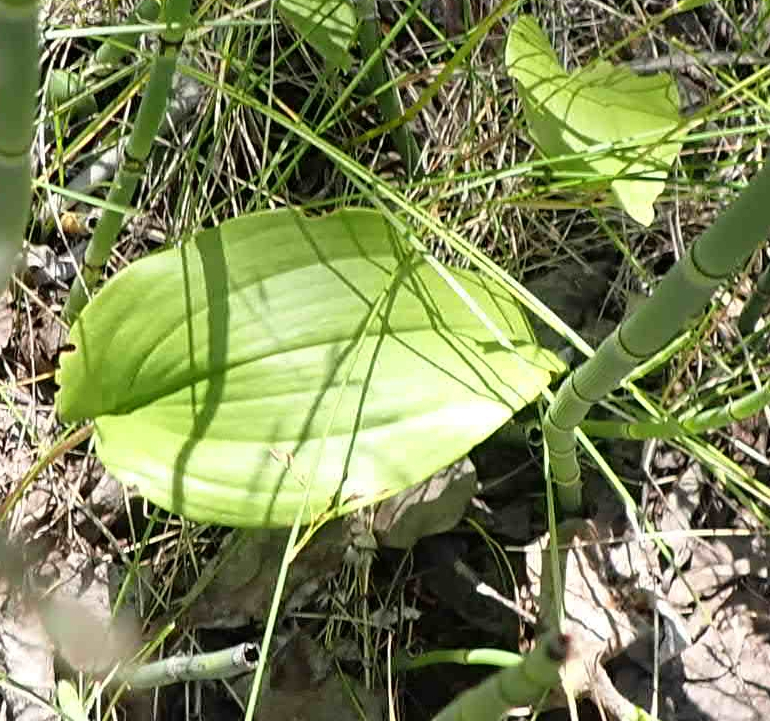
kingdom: Plantae
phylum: Tracheophyta
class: Liliopsida
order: Asparagales
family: Asparagaceae
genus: Maianthemum
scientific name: Maianthemum canadense
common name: False lily-of-the-valley
